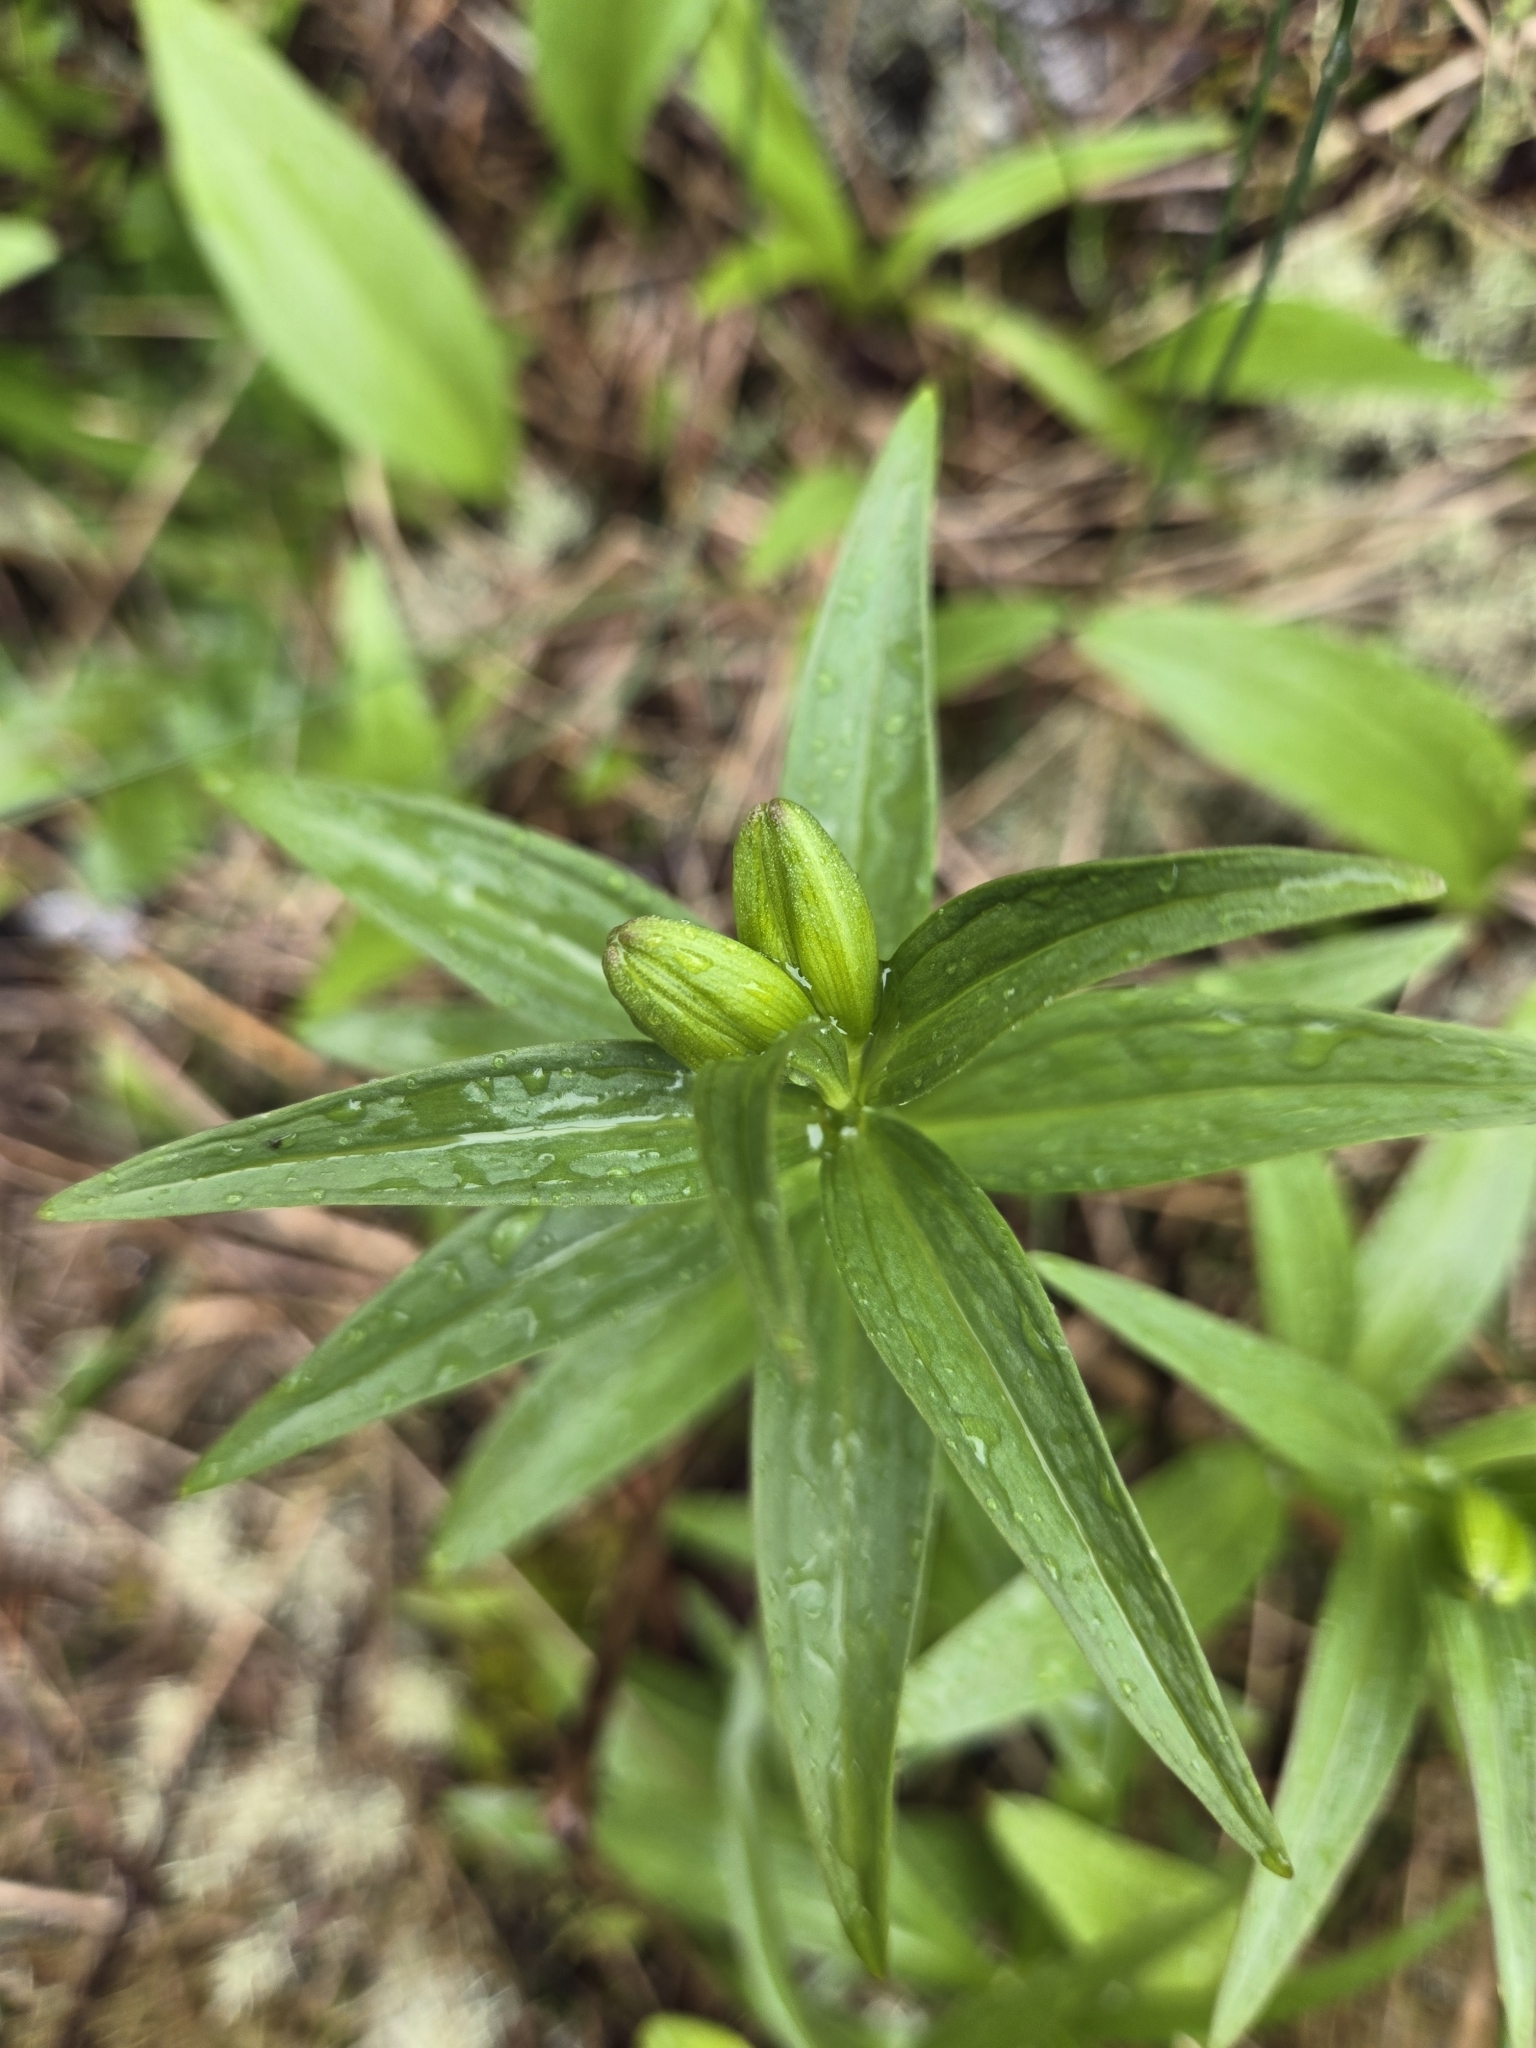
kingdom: Plantae
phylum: Tracheophyta
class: Liliopsida
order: Liliales
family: Liliaceae
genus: Fritillaria
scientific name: Fritillaria camschatcensis
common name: Kamchatka fritillary
